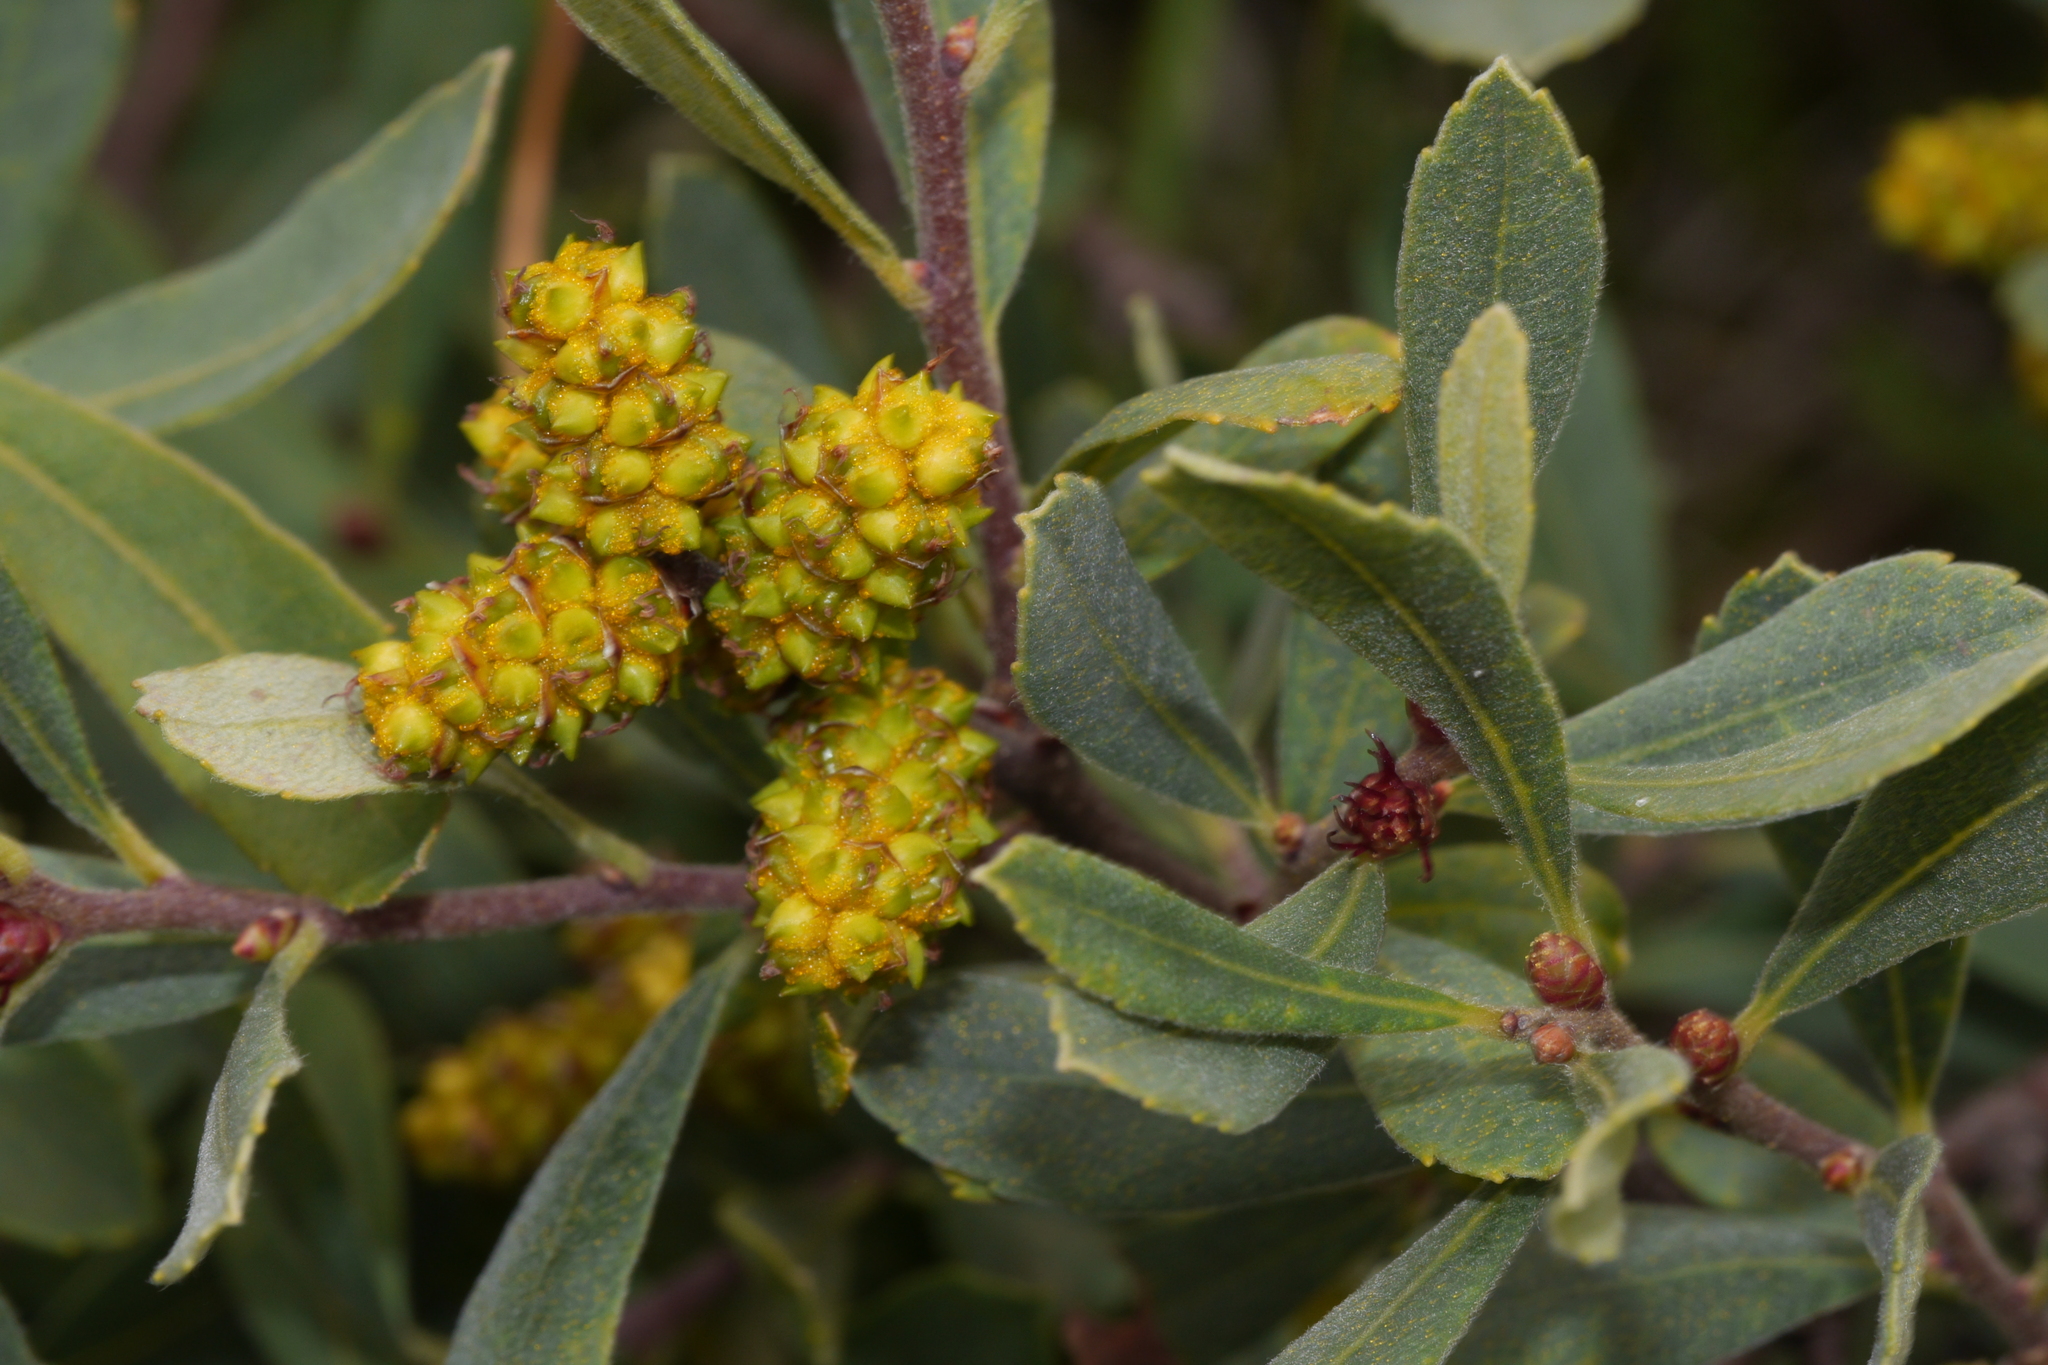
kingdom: Plantae
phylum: Tracheophyta
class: Magnoliopsida
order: Fagales
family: Myricaceae
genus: Myrica
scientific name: Myrica gale
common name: Sweet gale
